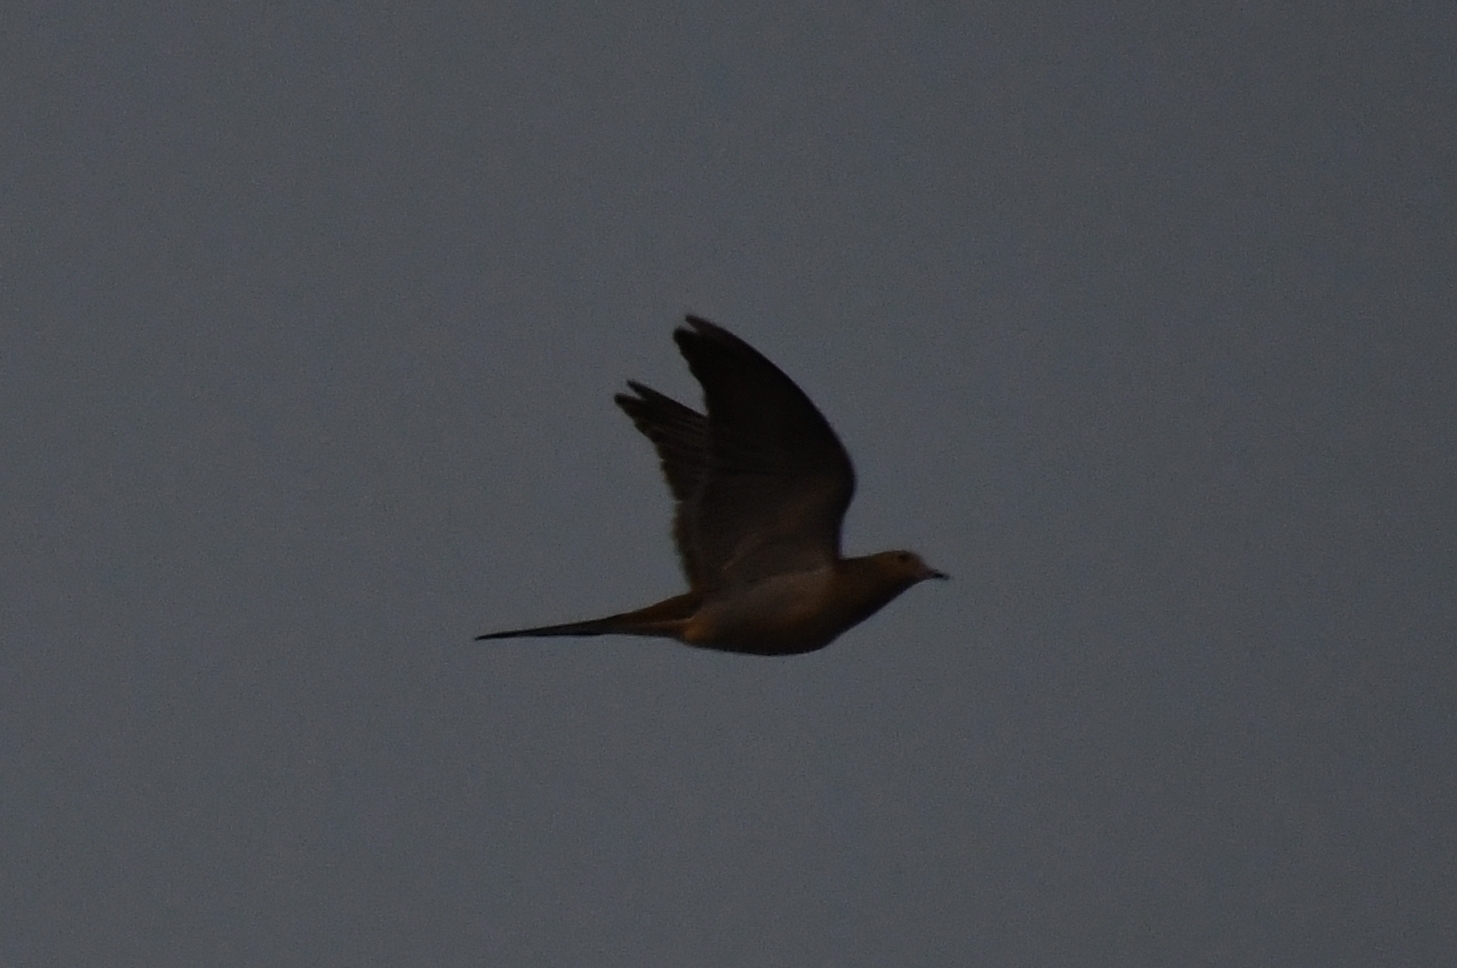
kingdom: Animalia
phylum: Chordata
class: Aves
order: Columbiformes
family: Columbidae
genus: Zenaida
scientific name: Zenaida macroura
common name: Mourning dove
